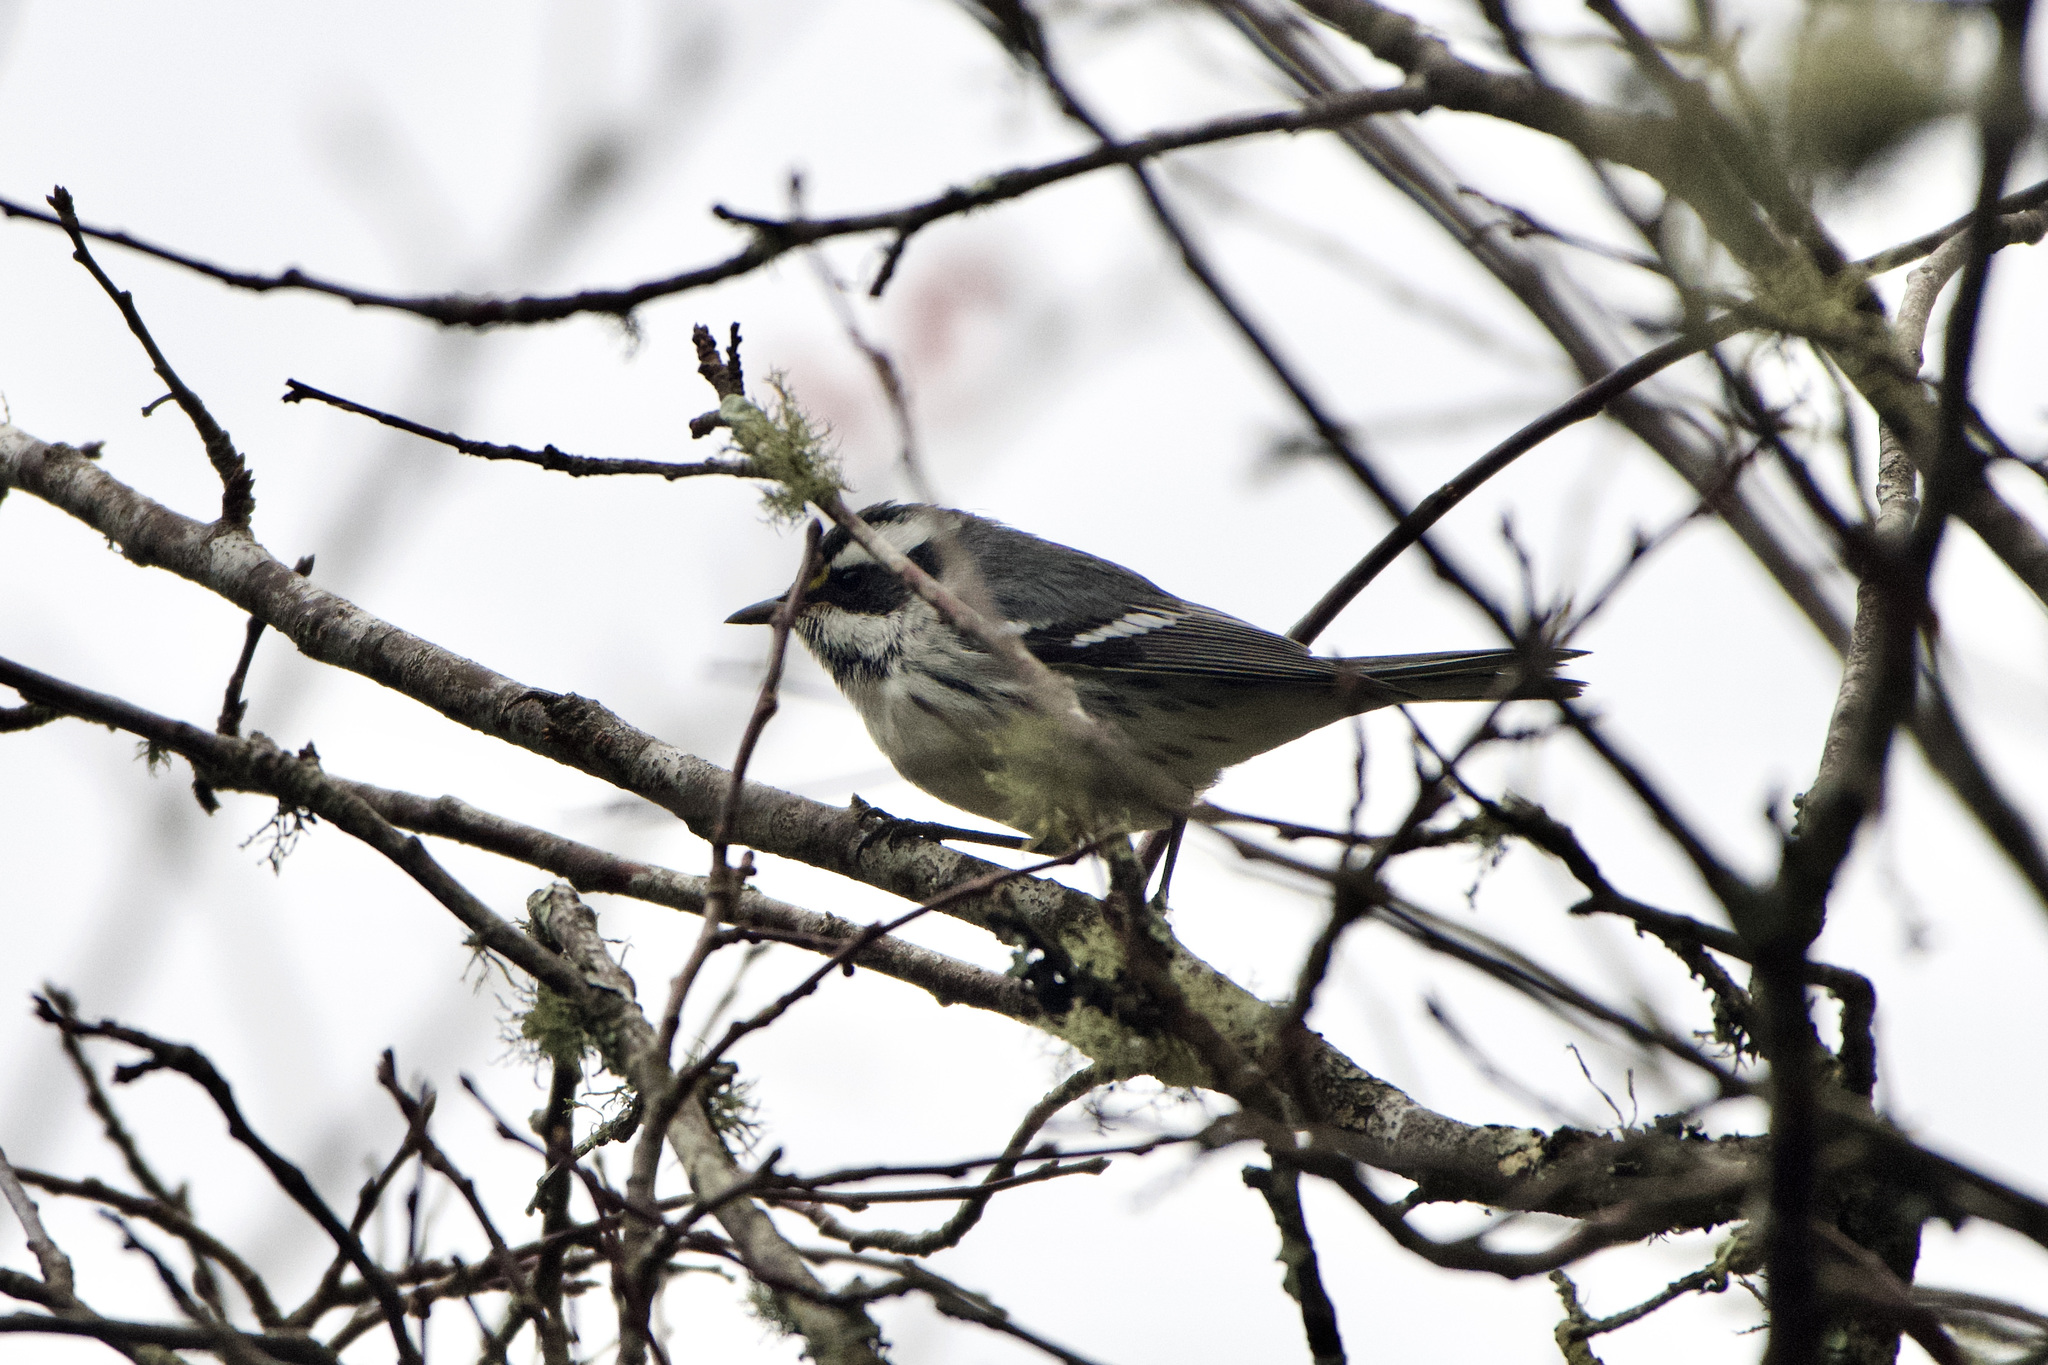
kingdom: Animalia
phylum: Chordata
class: Aves
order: Passeriformes
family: Parulidae
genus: Setophaga
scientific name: Setophaga nigrescens
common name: Black-throated gray warbler
